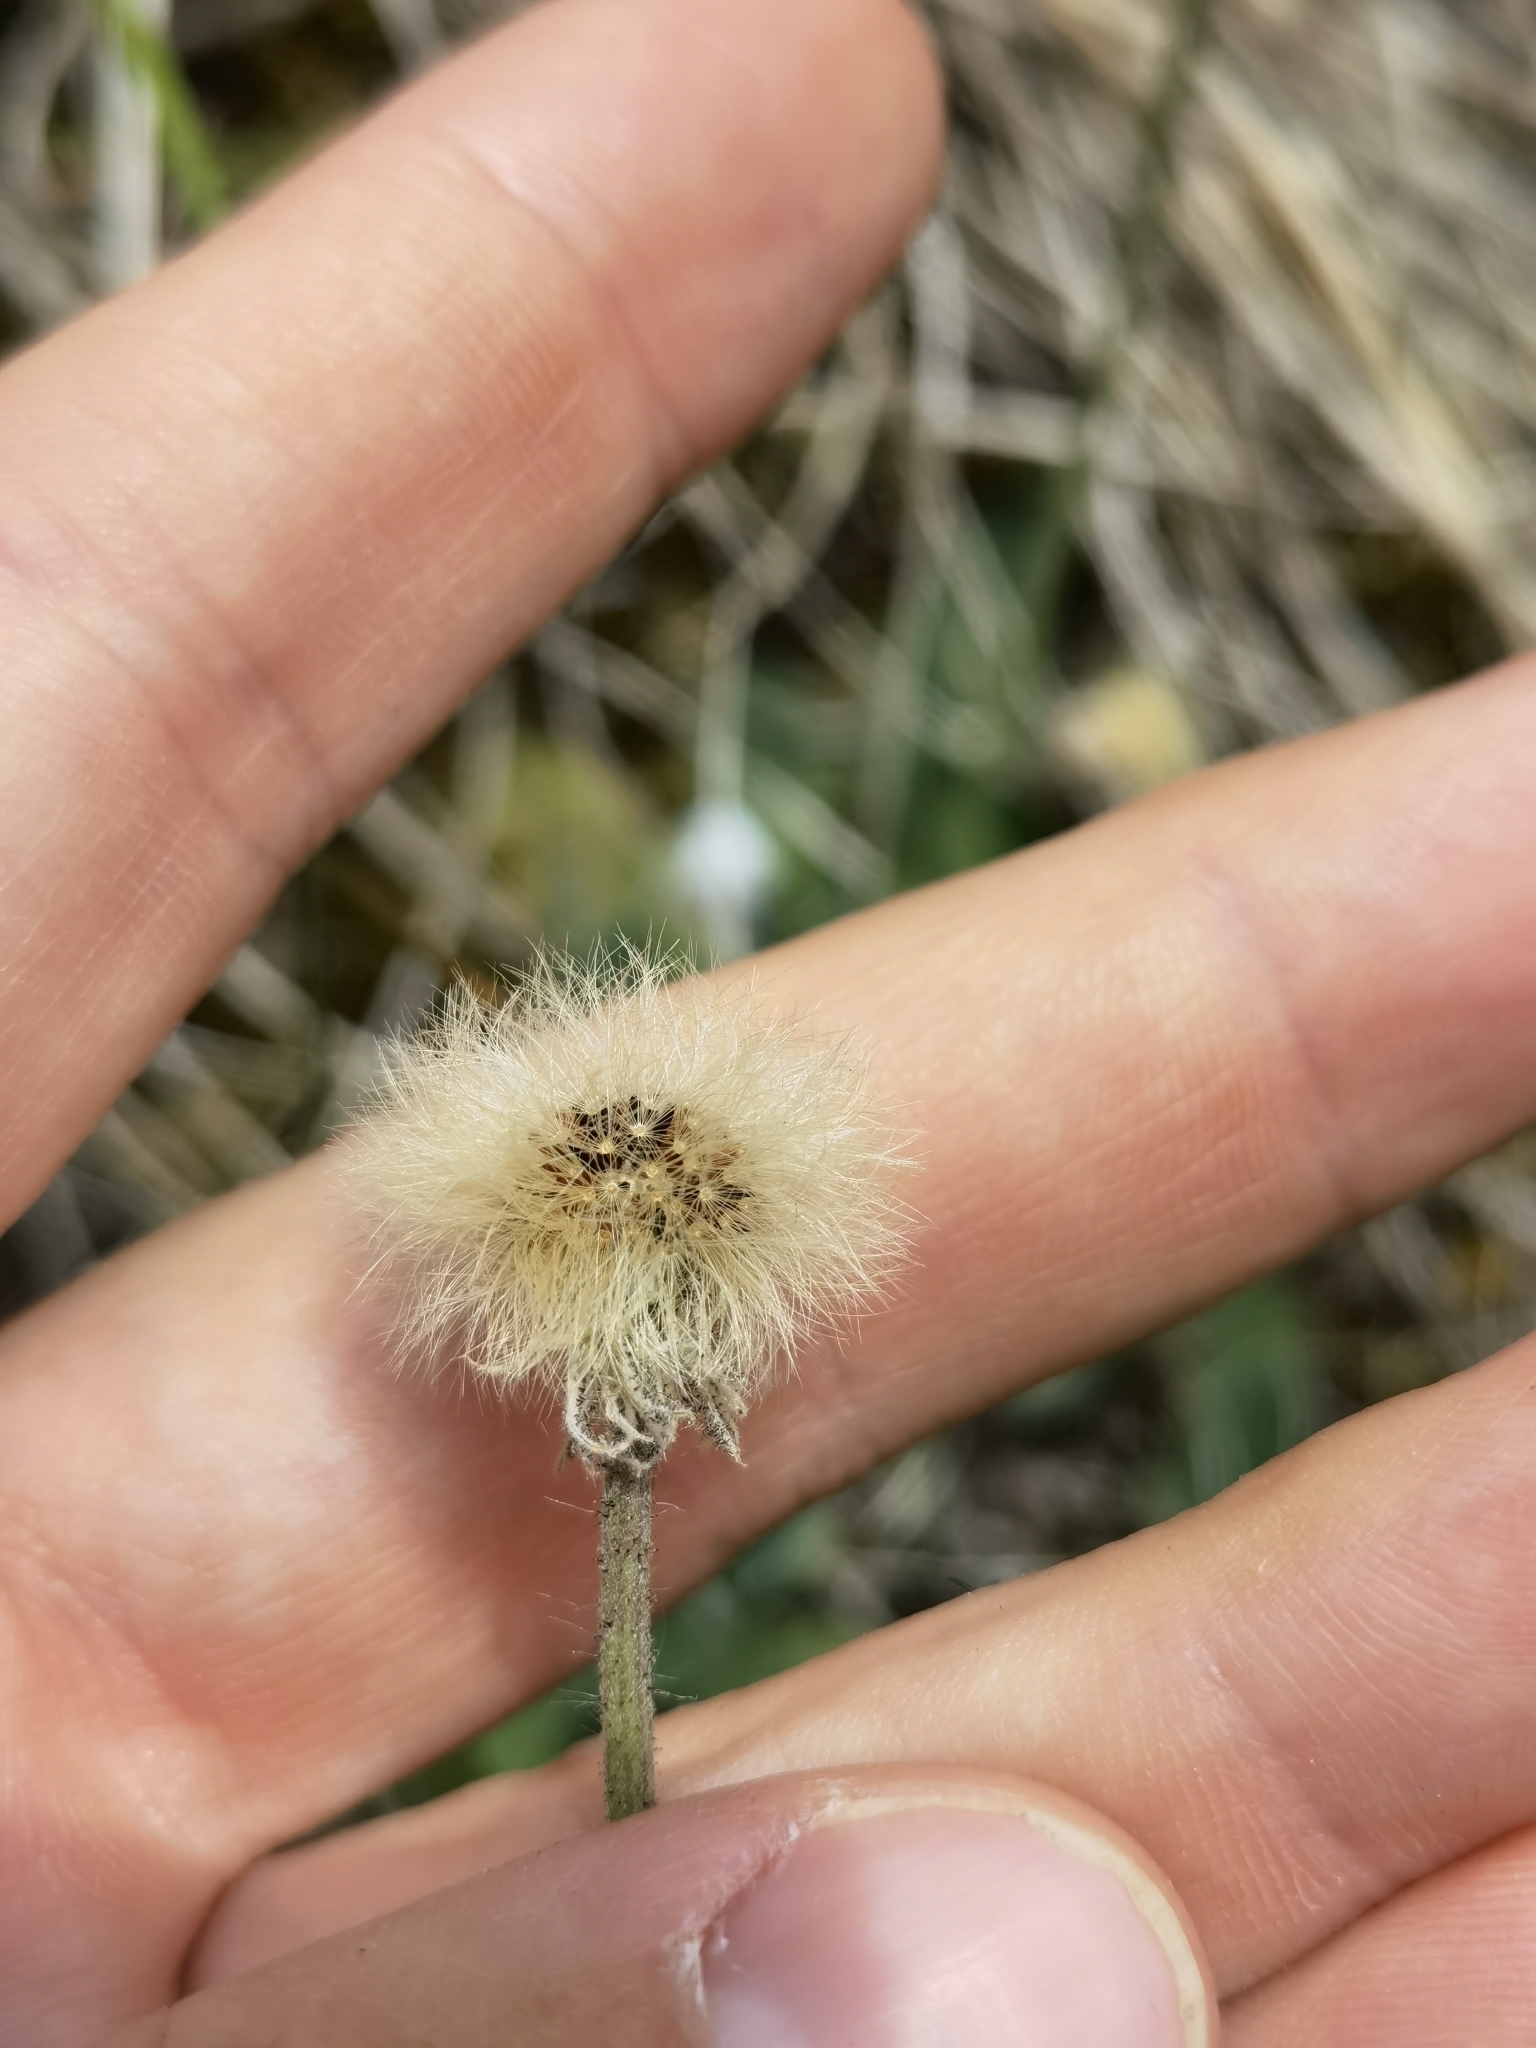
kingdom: Plantae
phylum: Tracheophyta
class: Magnoliopsida
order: Asterales
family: Asteraceae
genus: Pilosella
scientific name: Pilosella officinarum
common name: Mouse-ear hawkweed
